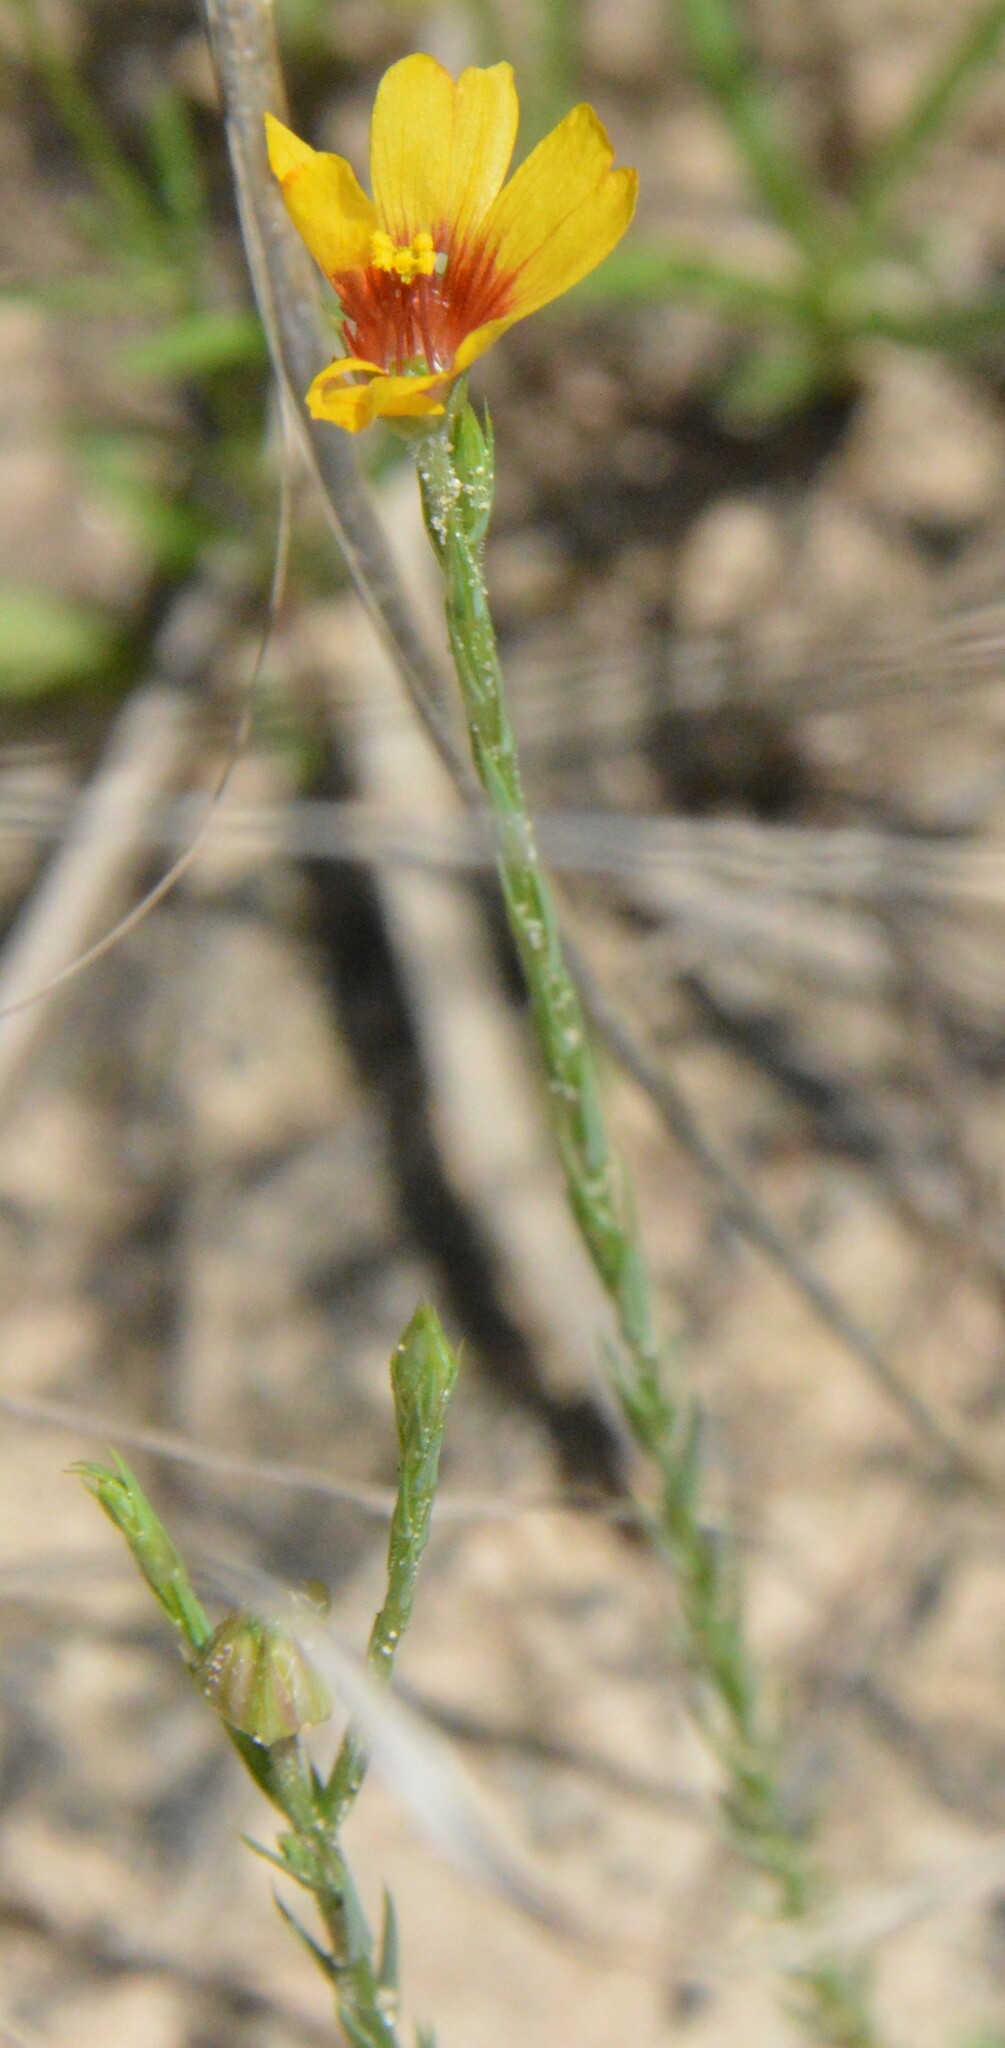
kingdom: Plantae
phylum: Tracheophyta
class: Magnoliopsida
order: Malpighiales
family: Linaceae
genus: Linum
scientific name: Linum imbricatum
